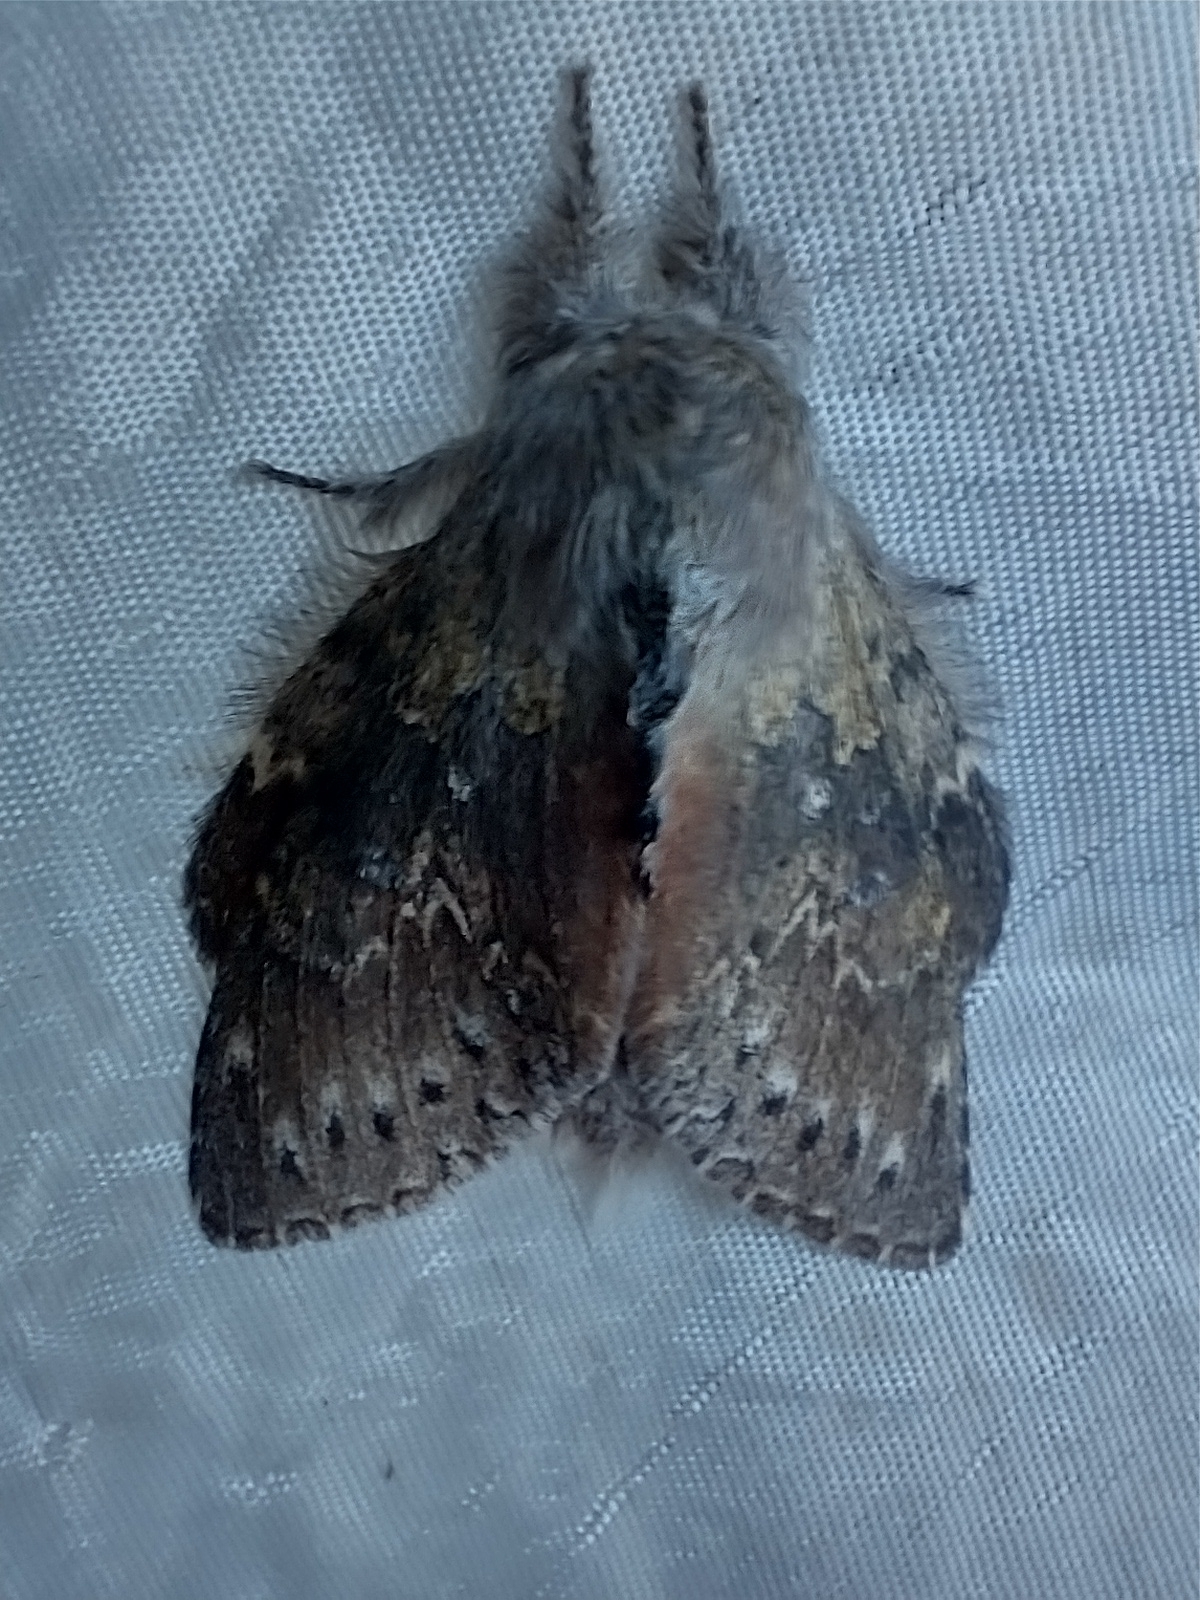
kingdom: Animalia
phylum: Arthropoda
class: Insecta
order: Lepidoptera
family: Notodontidae
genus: Stauropus
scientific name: Stauropus fagi
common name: Lobster moth
